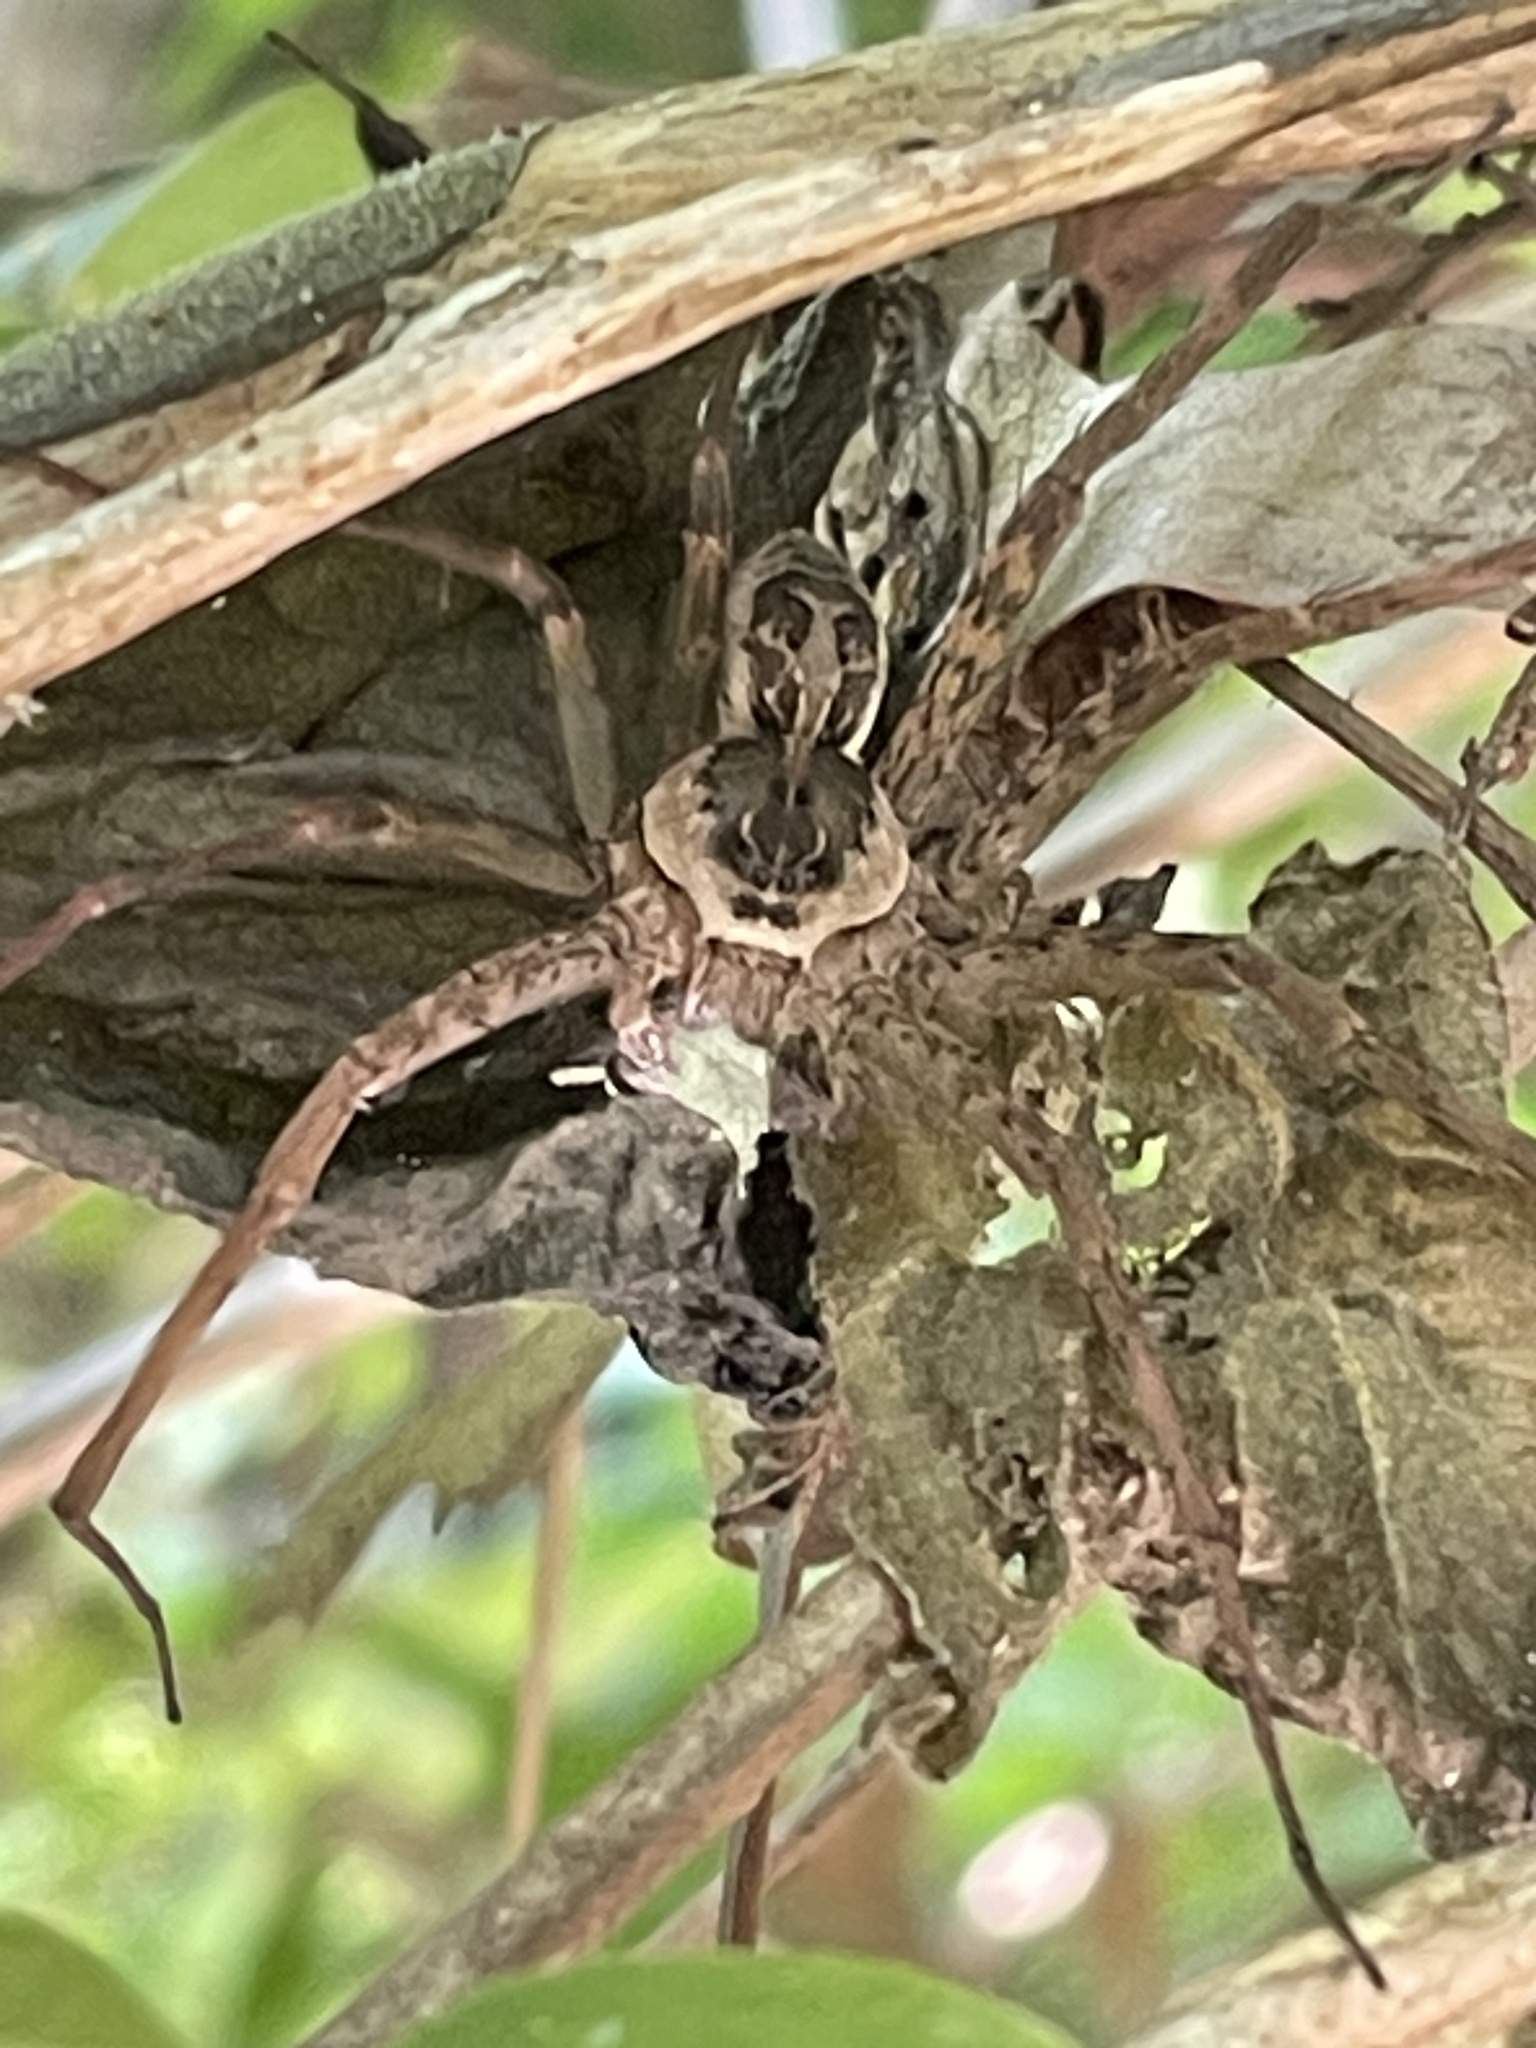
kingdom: Animalia
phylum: Arthropoda
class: Arachnida
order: Araneae
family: Pisauridae
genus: Dolomedes
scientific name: Dolomedes scriptus
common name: Striped fishing spider
